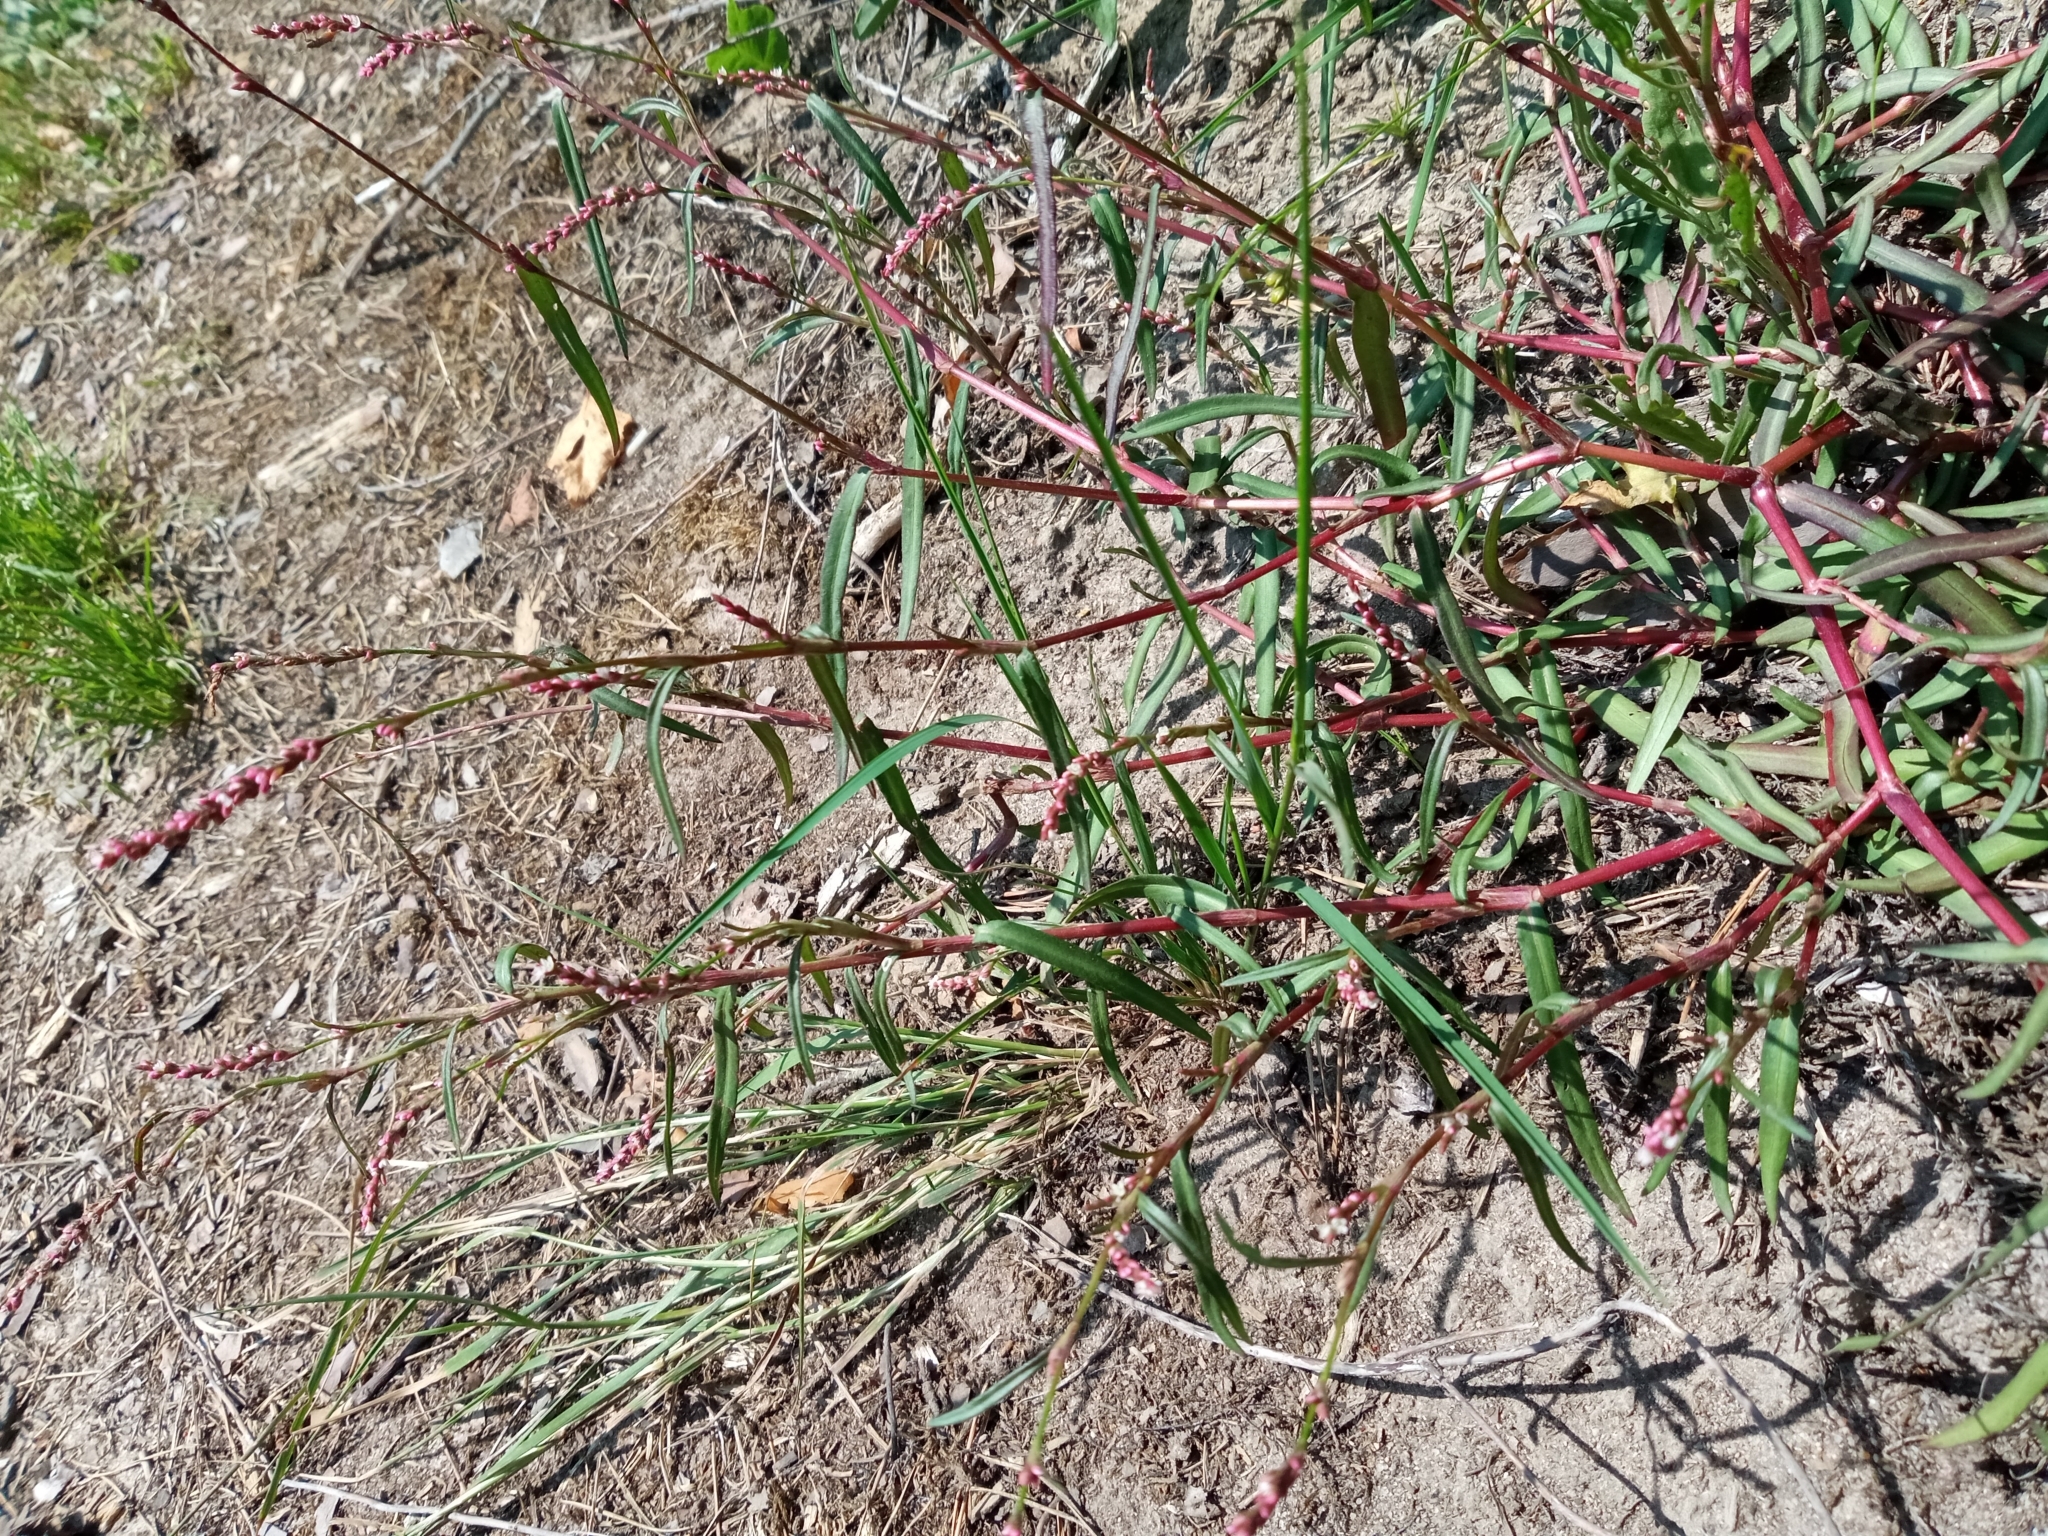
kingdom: Plantae
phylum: Tracheophyta
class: Magnoliopsida
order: Caryophyllales
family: Polygonaceae
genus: Persicaria
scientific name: Persicaria minor
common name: Small water-pepper
